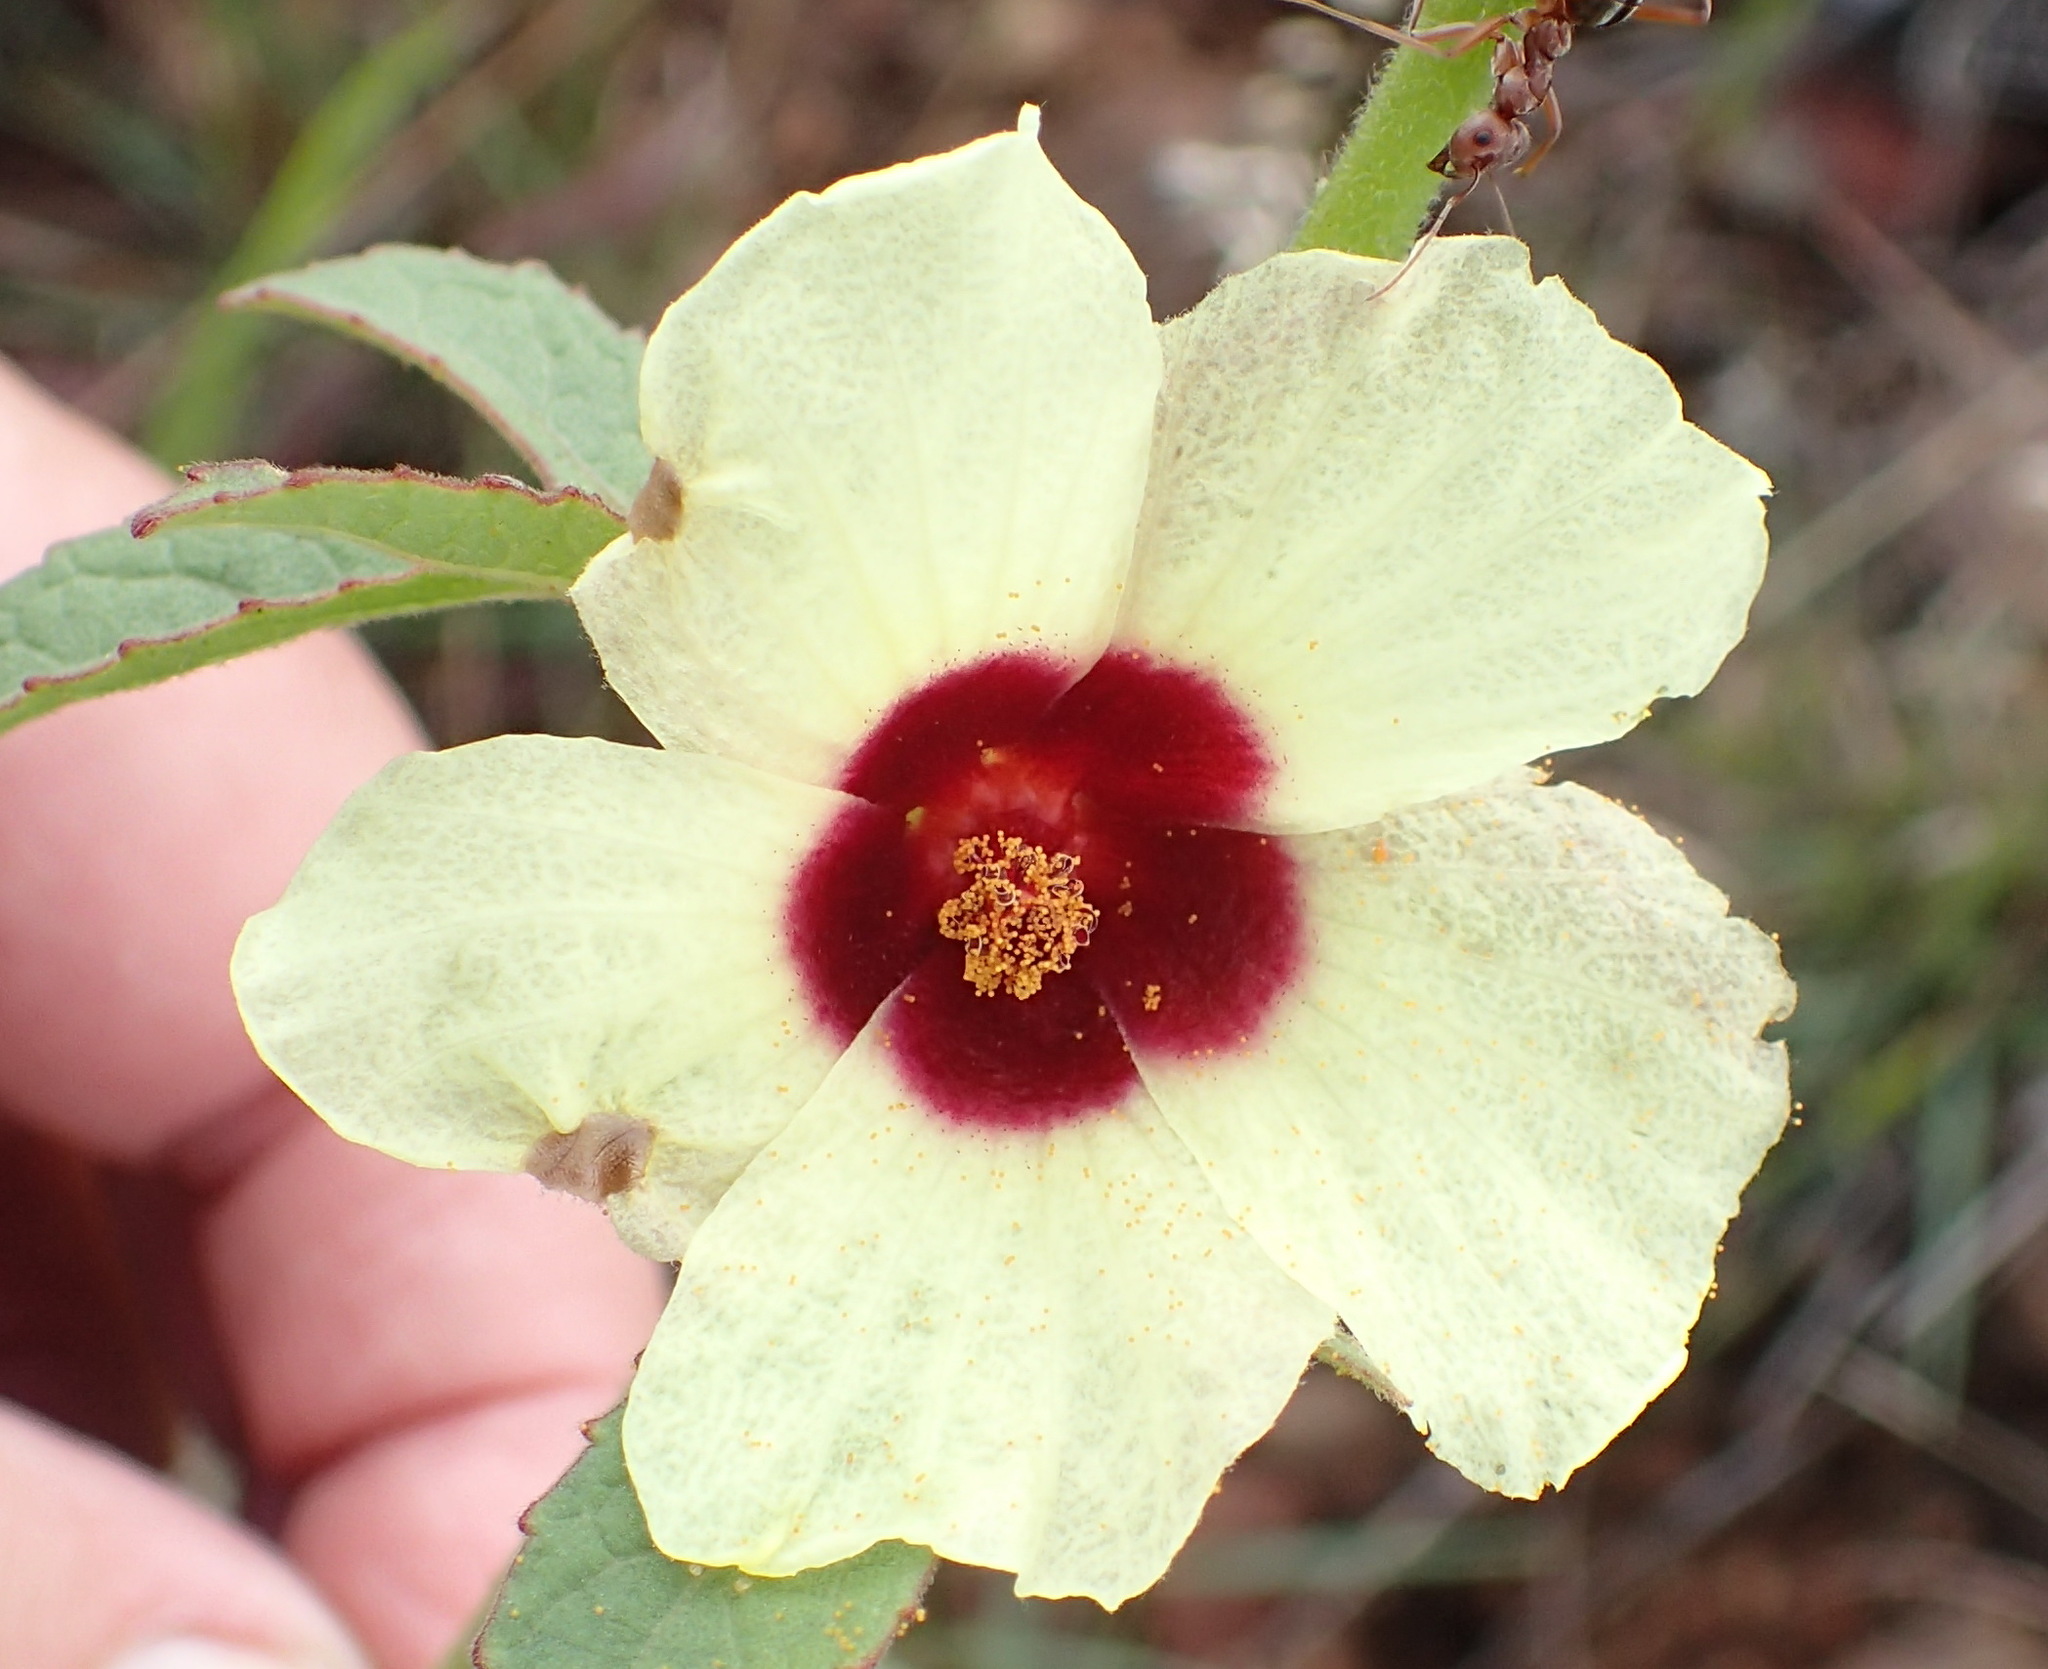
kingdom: Plantae
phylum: Tracheophyta
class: Magnoliopsida
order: Malvales
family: Malvaceae
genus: Hibiscus
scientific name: Hibiscus nigricaulis
